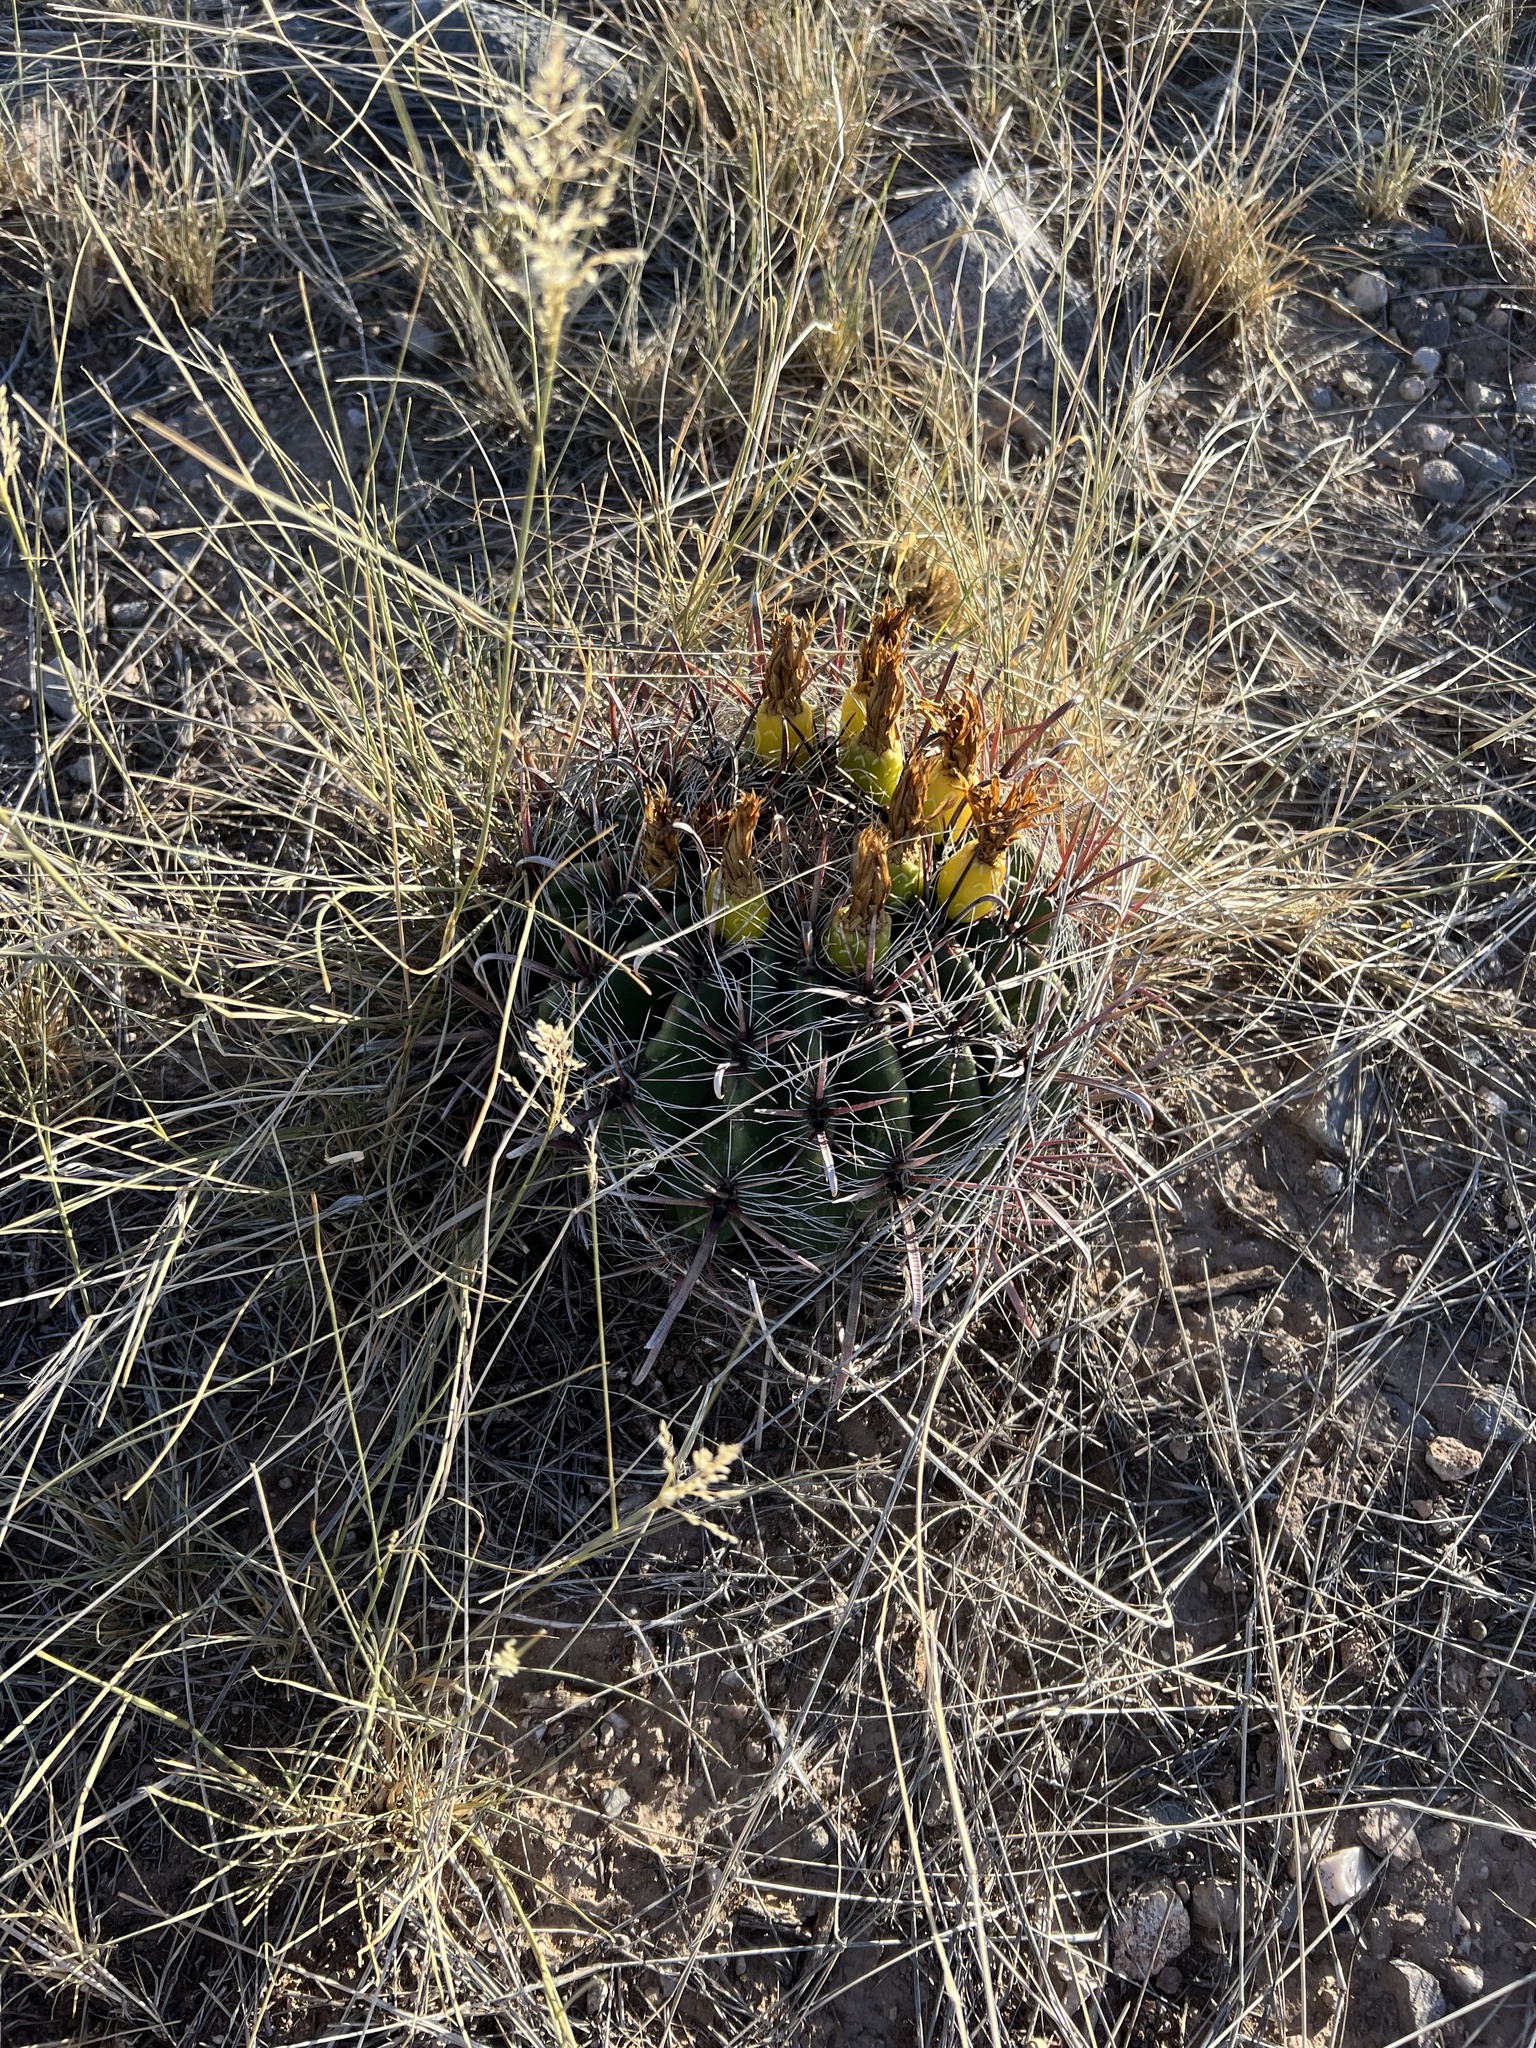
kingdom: Plantae
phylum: Tracheophyta
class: Magnoliopsida
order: Caryophyllales
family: Cactaceae
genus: Ferocactus
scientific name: Ferocactus wislizeni
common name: Candy barrel cactus
